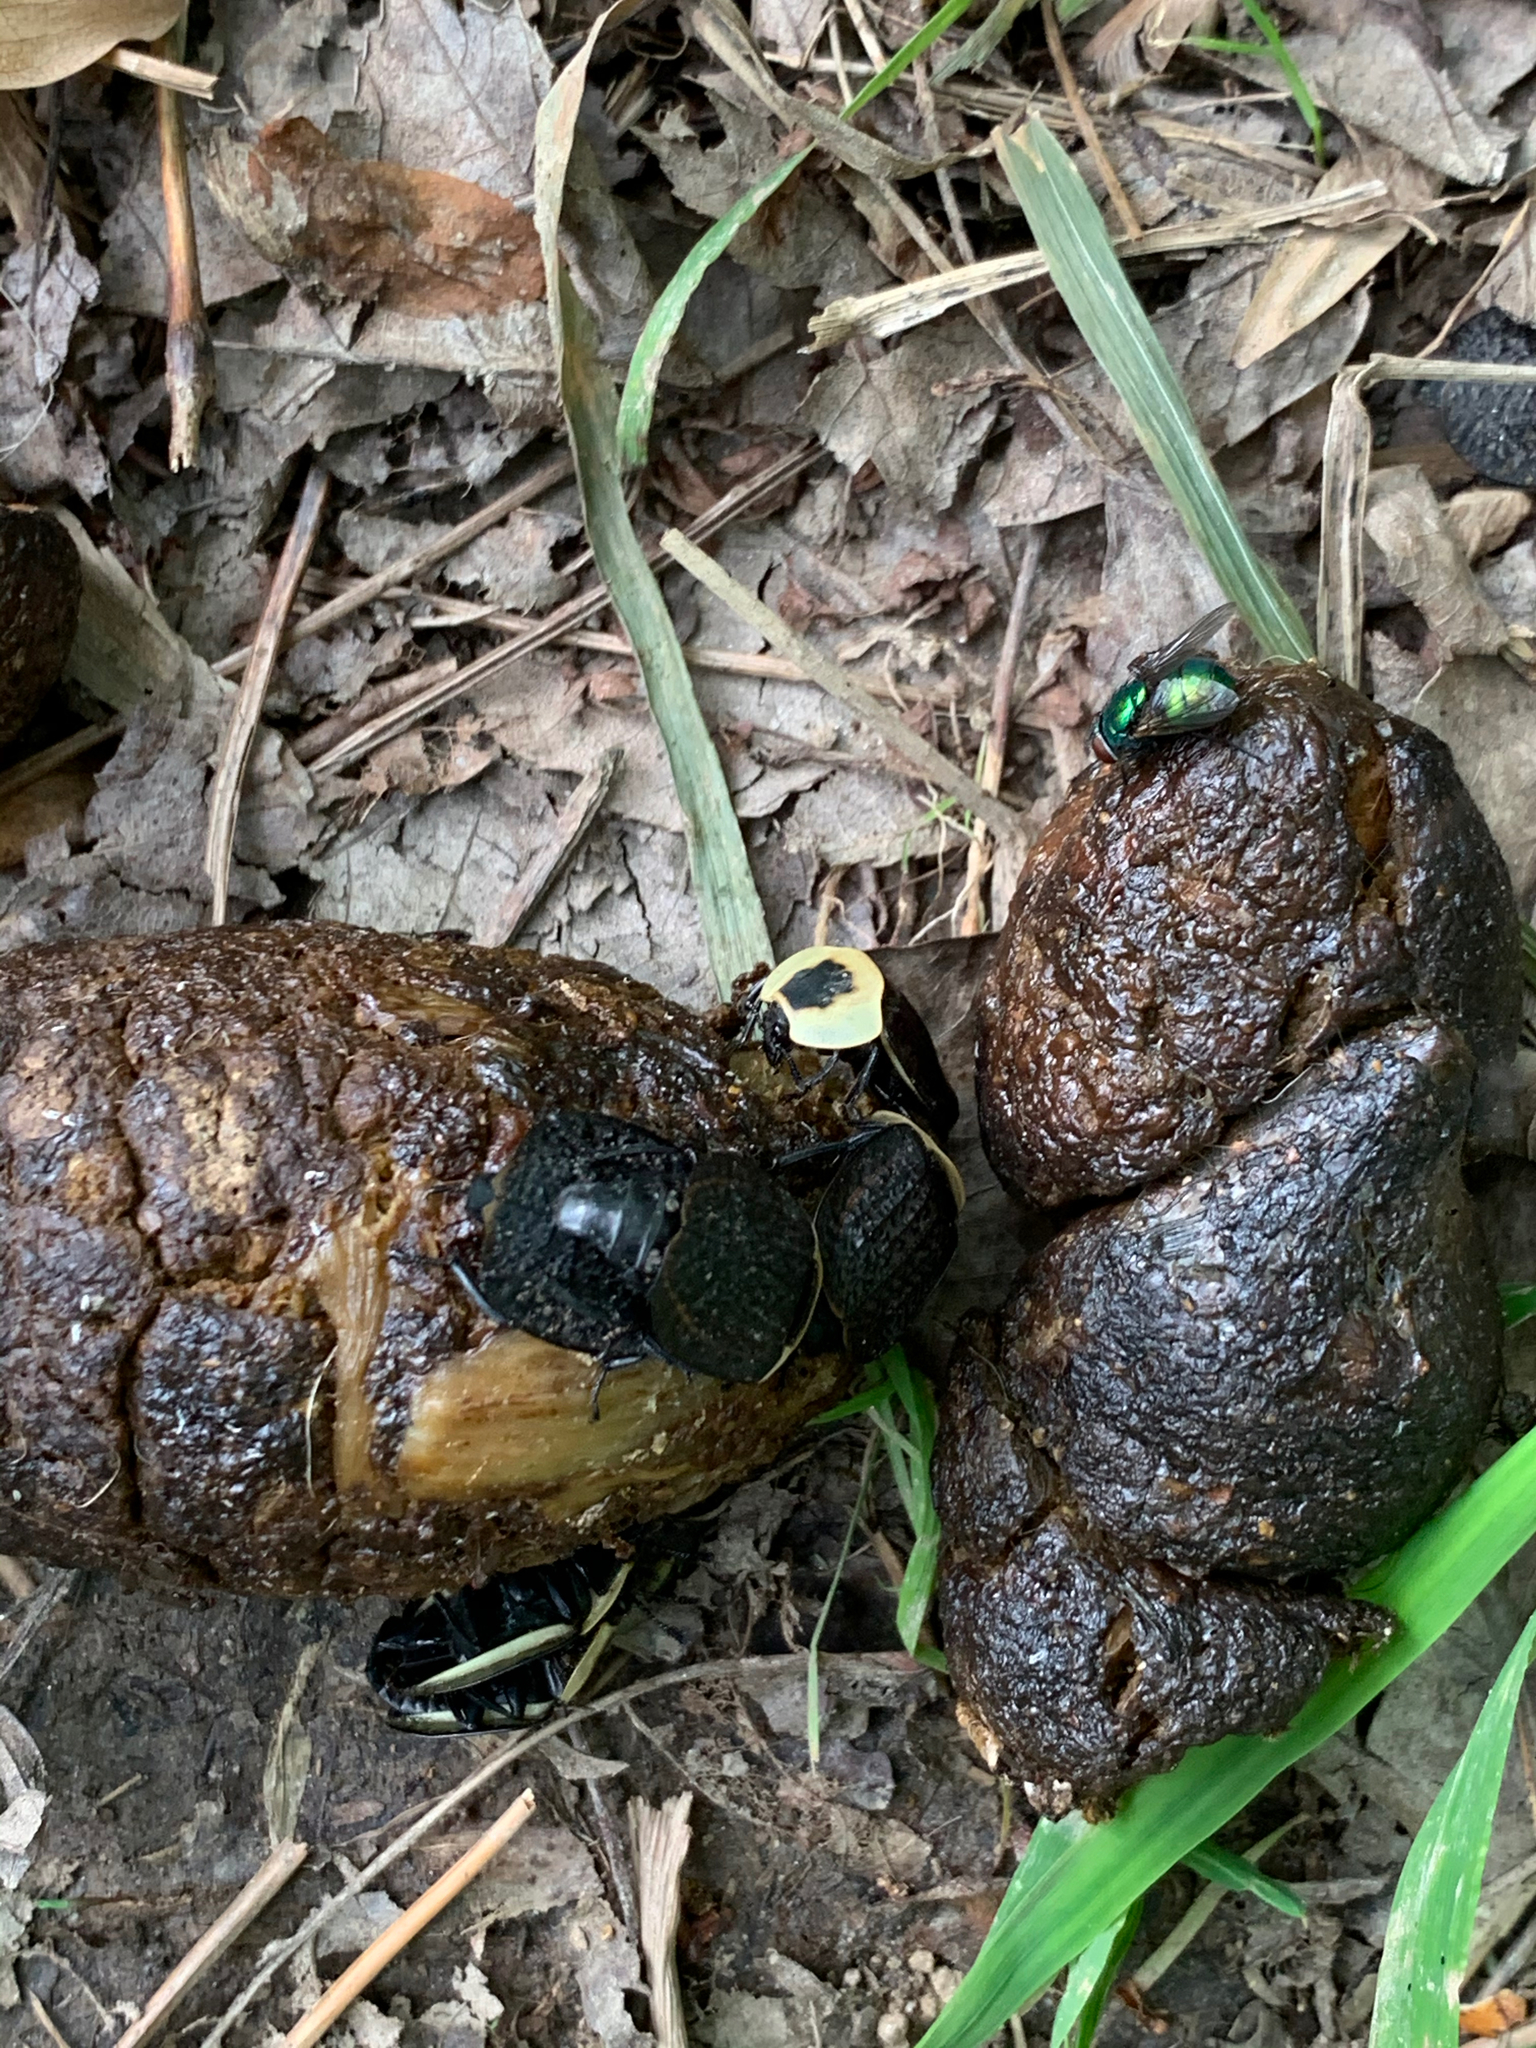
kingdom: Animalia
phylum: Arthropoda
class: Insecta
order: Coleoptera
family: Staphylinidae
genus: Necrophila
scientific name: Necrophila americana
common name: American carrion beetle
